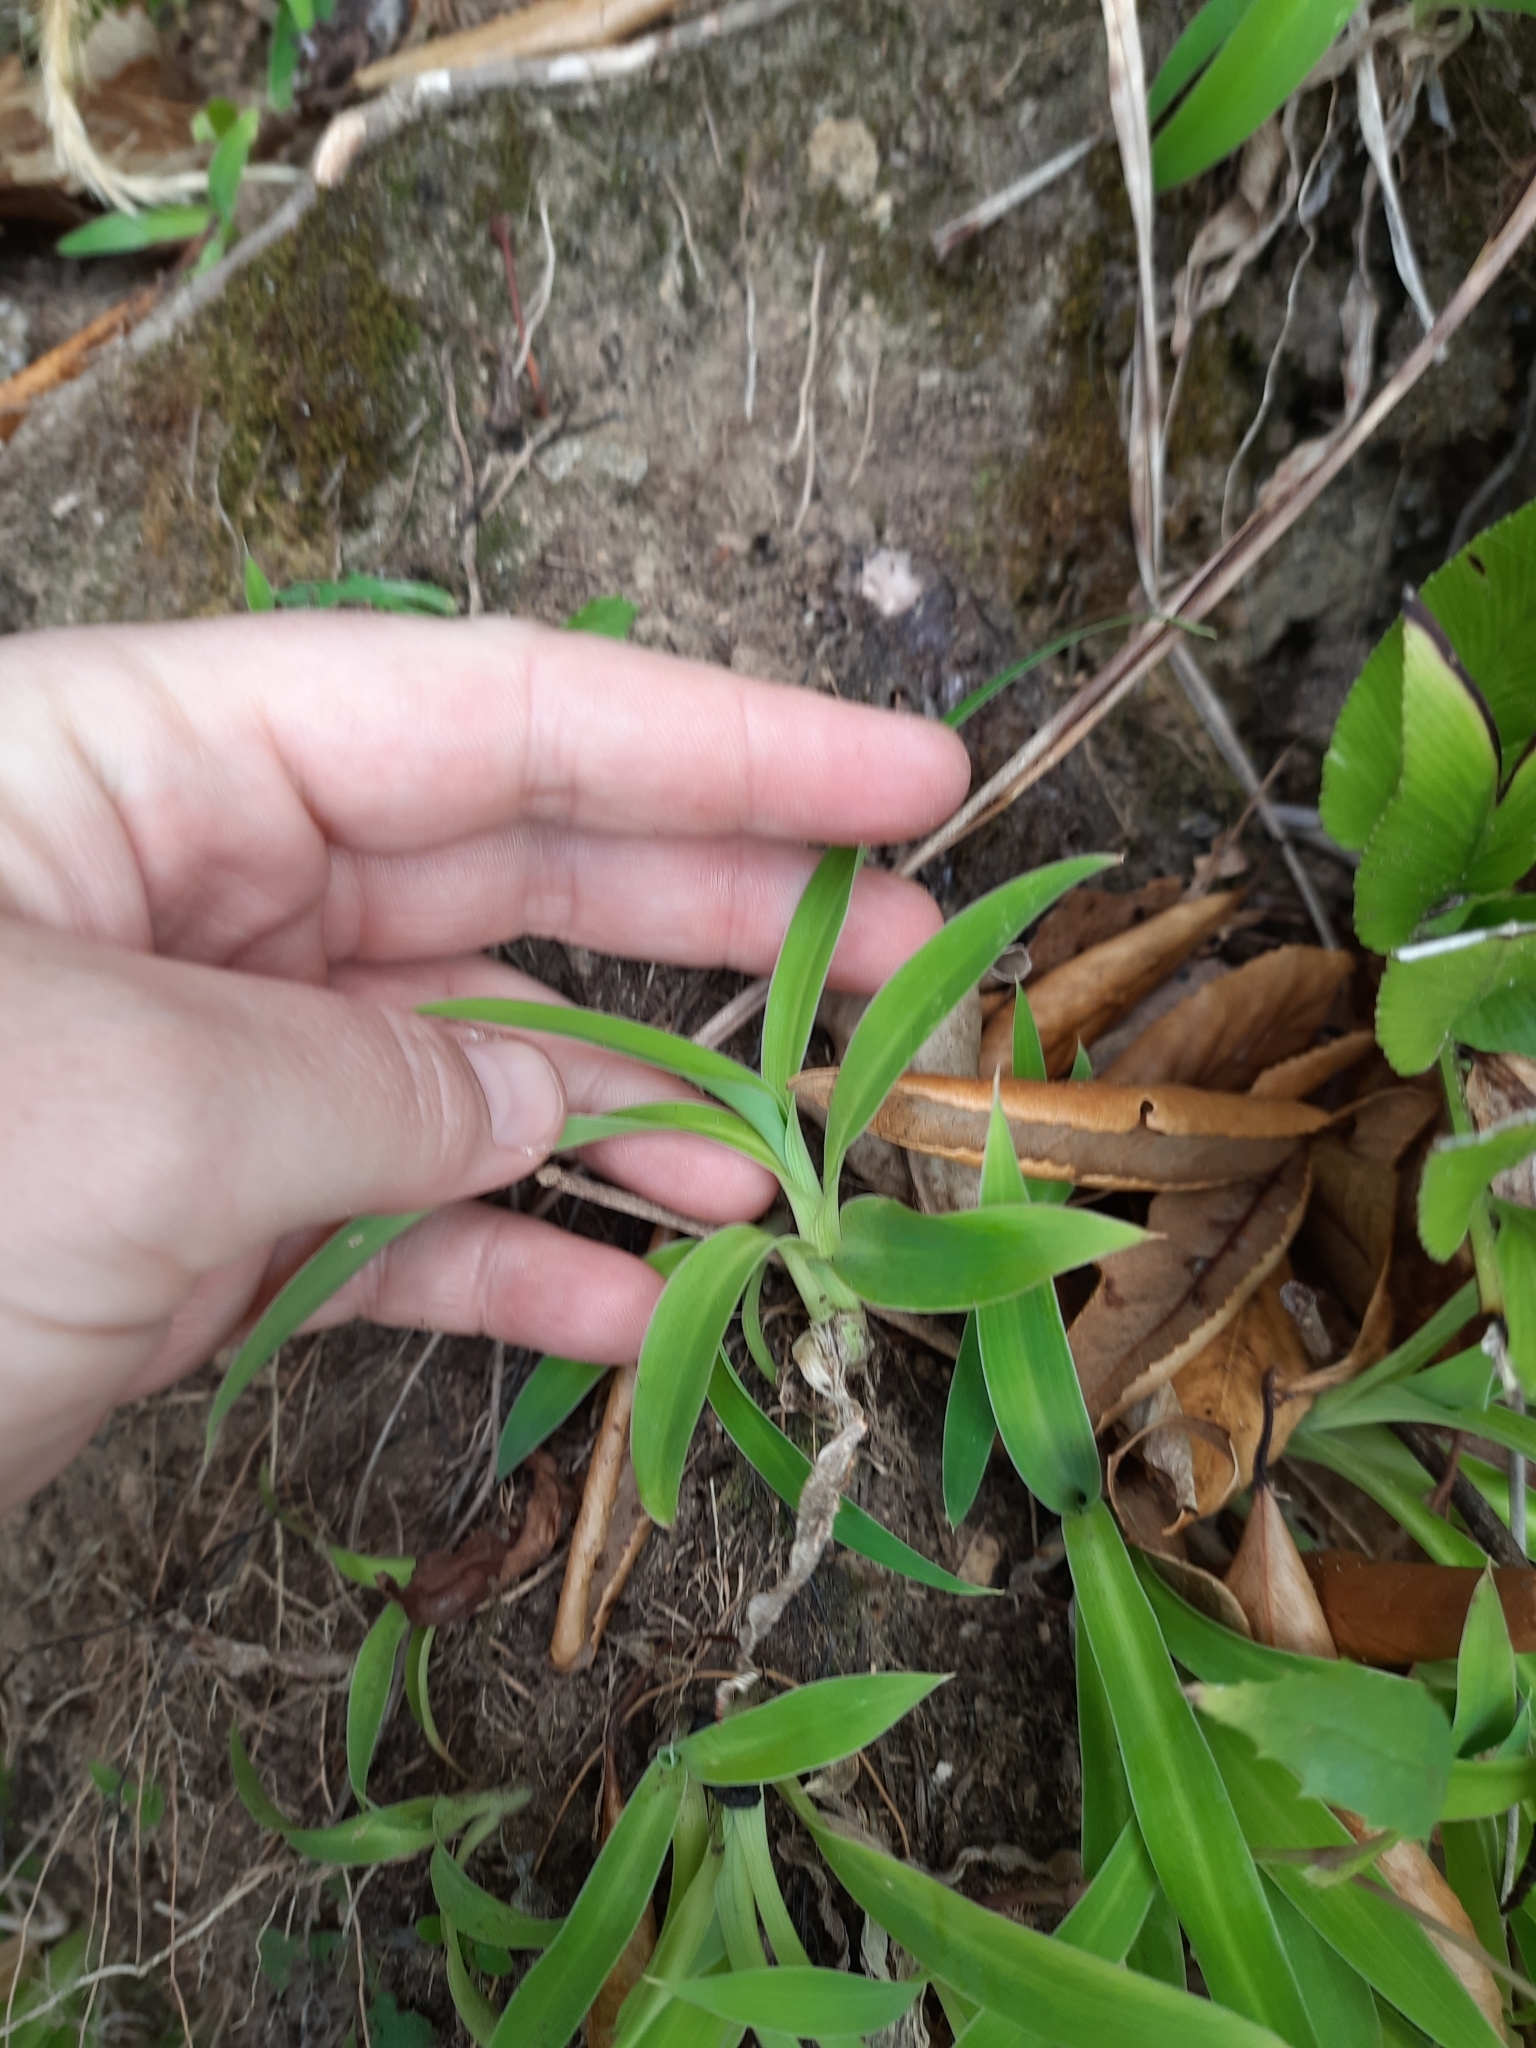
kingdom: Plantae
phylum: Tracheophyta
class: Liliopsida
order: Asparagales
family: Asparagaceae
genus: Arthropodium
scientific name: Arthropodium cirratum
